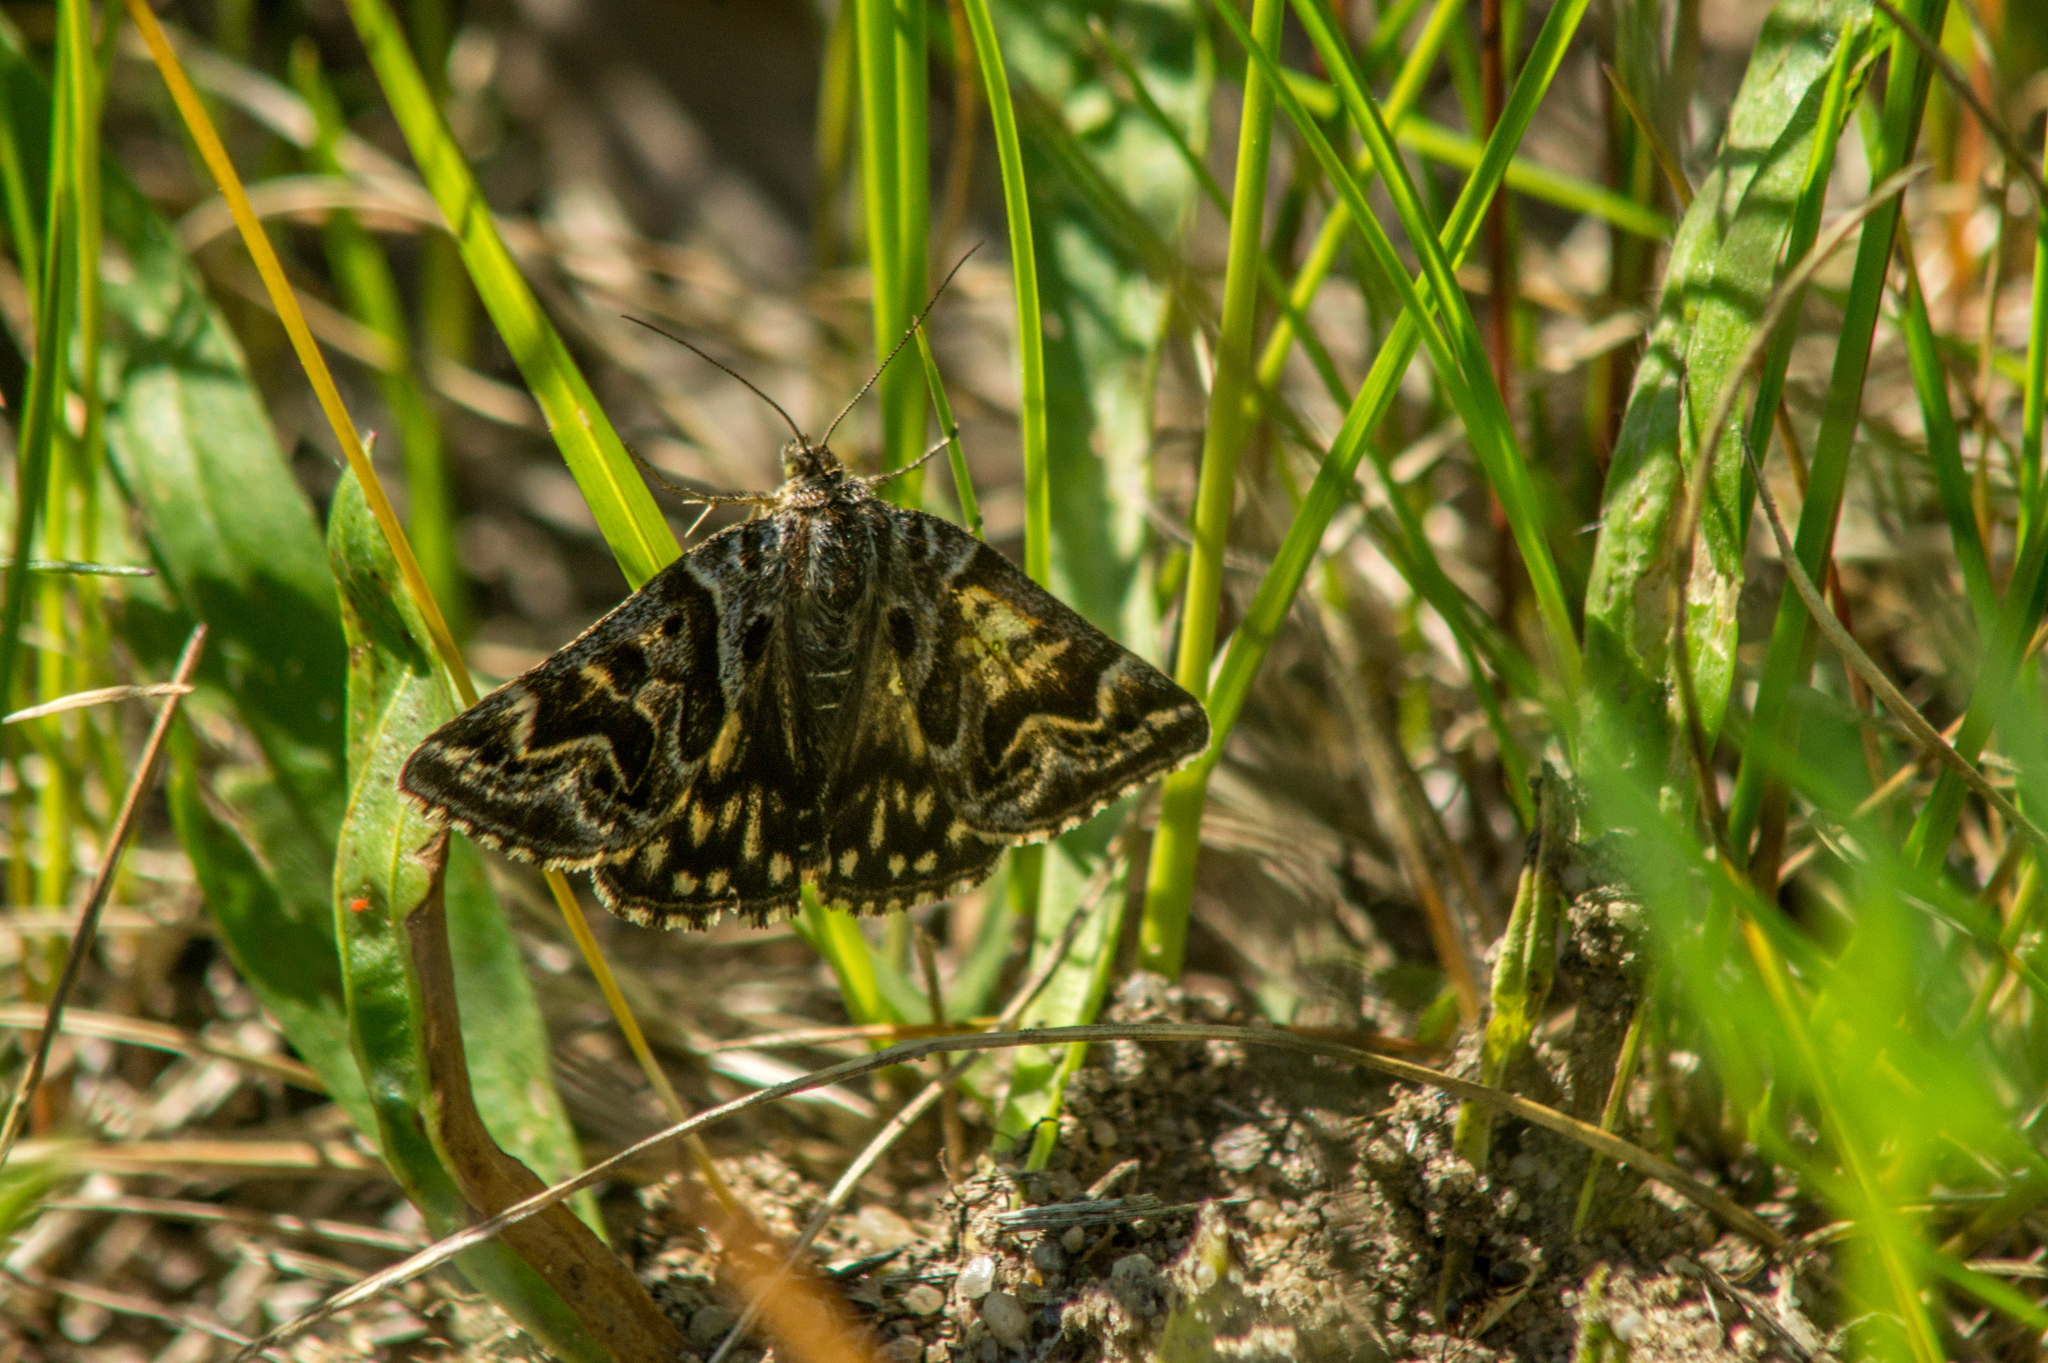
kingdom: Animalia
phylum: Arthropoda
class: Insecta
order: Lepidoptera
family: Erebidae
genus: Callistege
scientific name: Callistege mi
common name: Mother shipton
